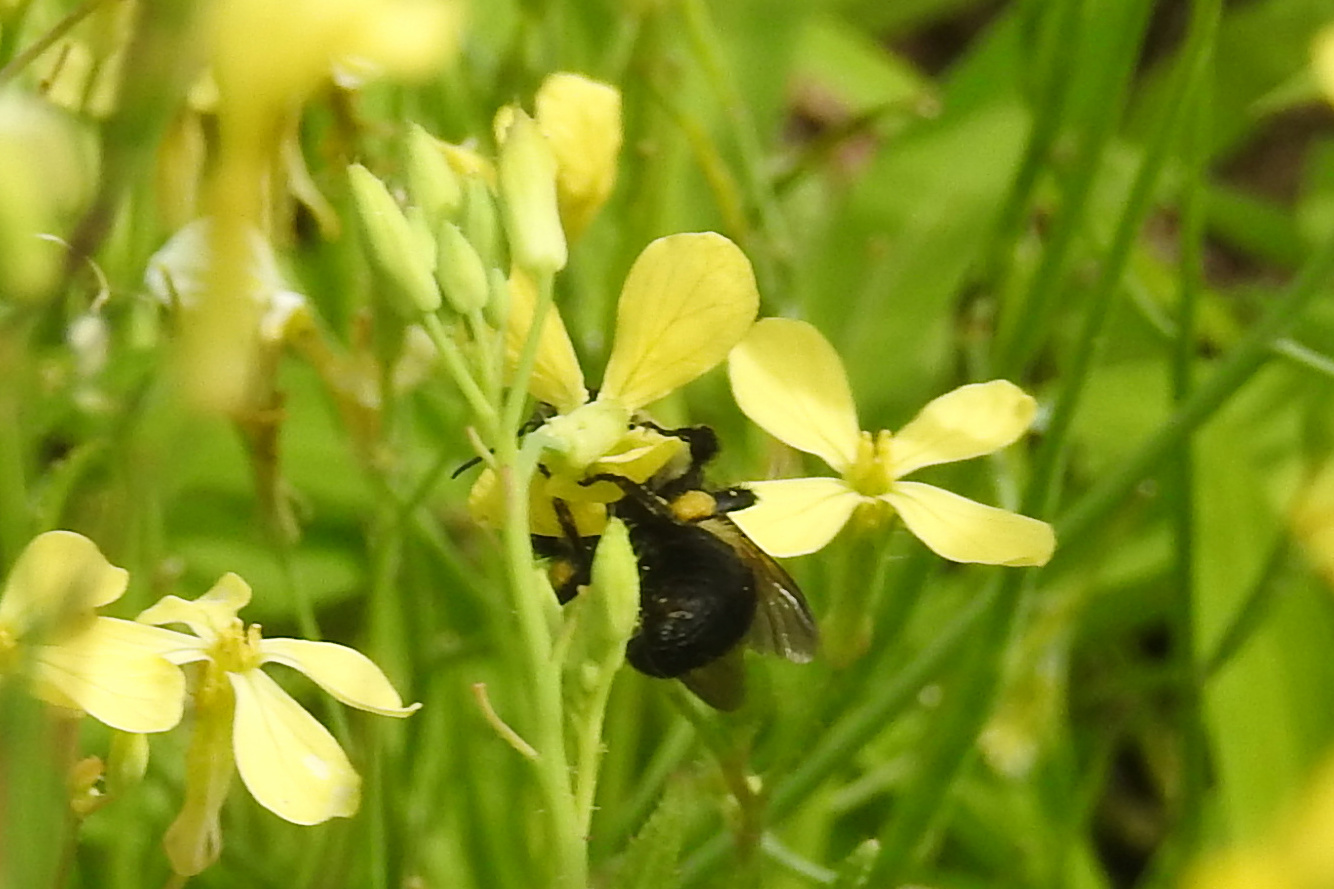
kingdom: Animalia
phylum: Arthropoda
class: Insecta
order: Hymenoptera
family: Apidae
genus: Bombus
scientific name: Bombus
